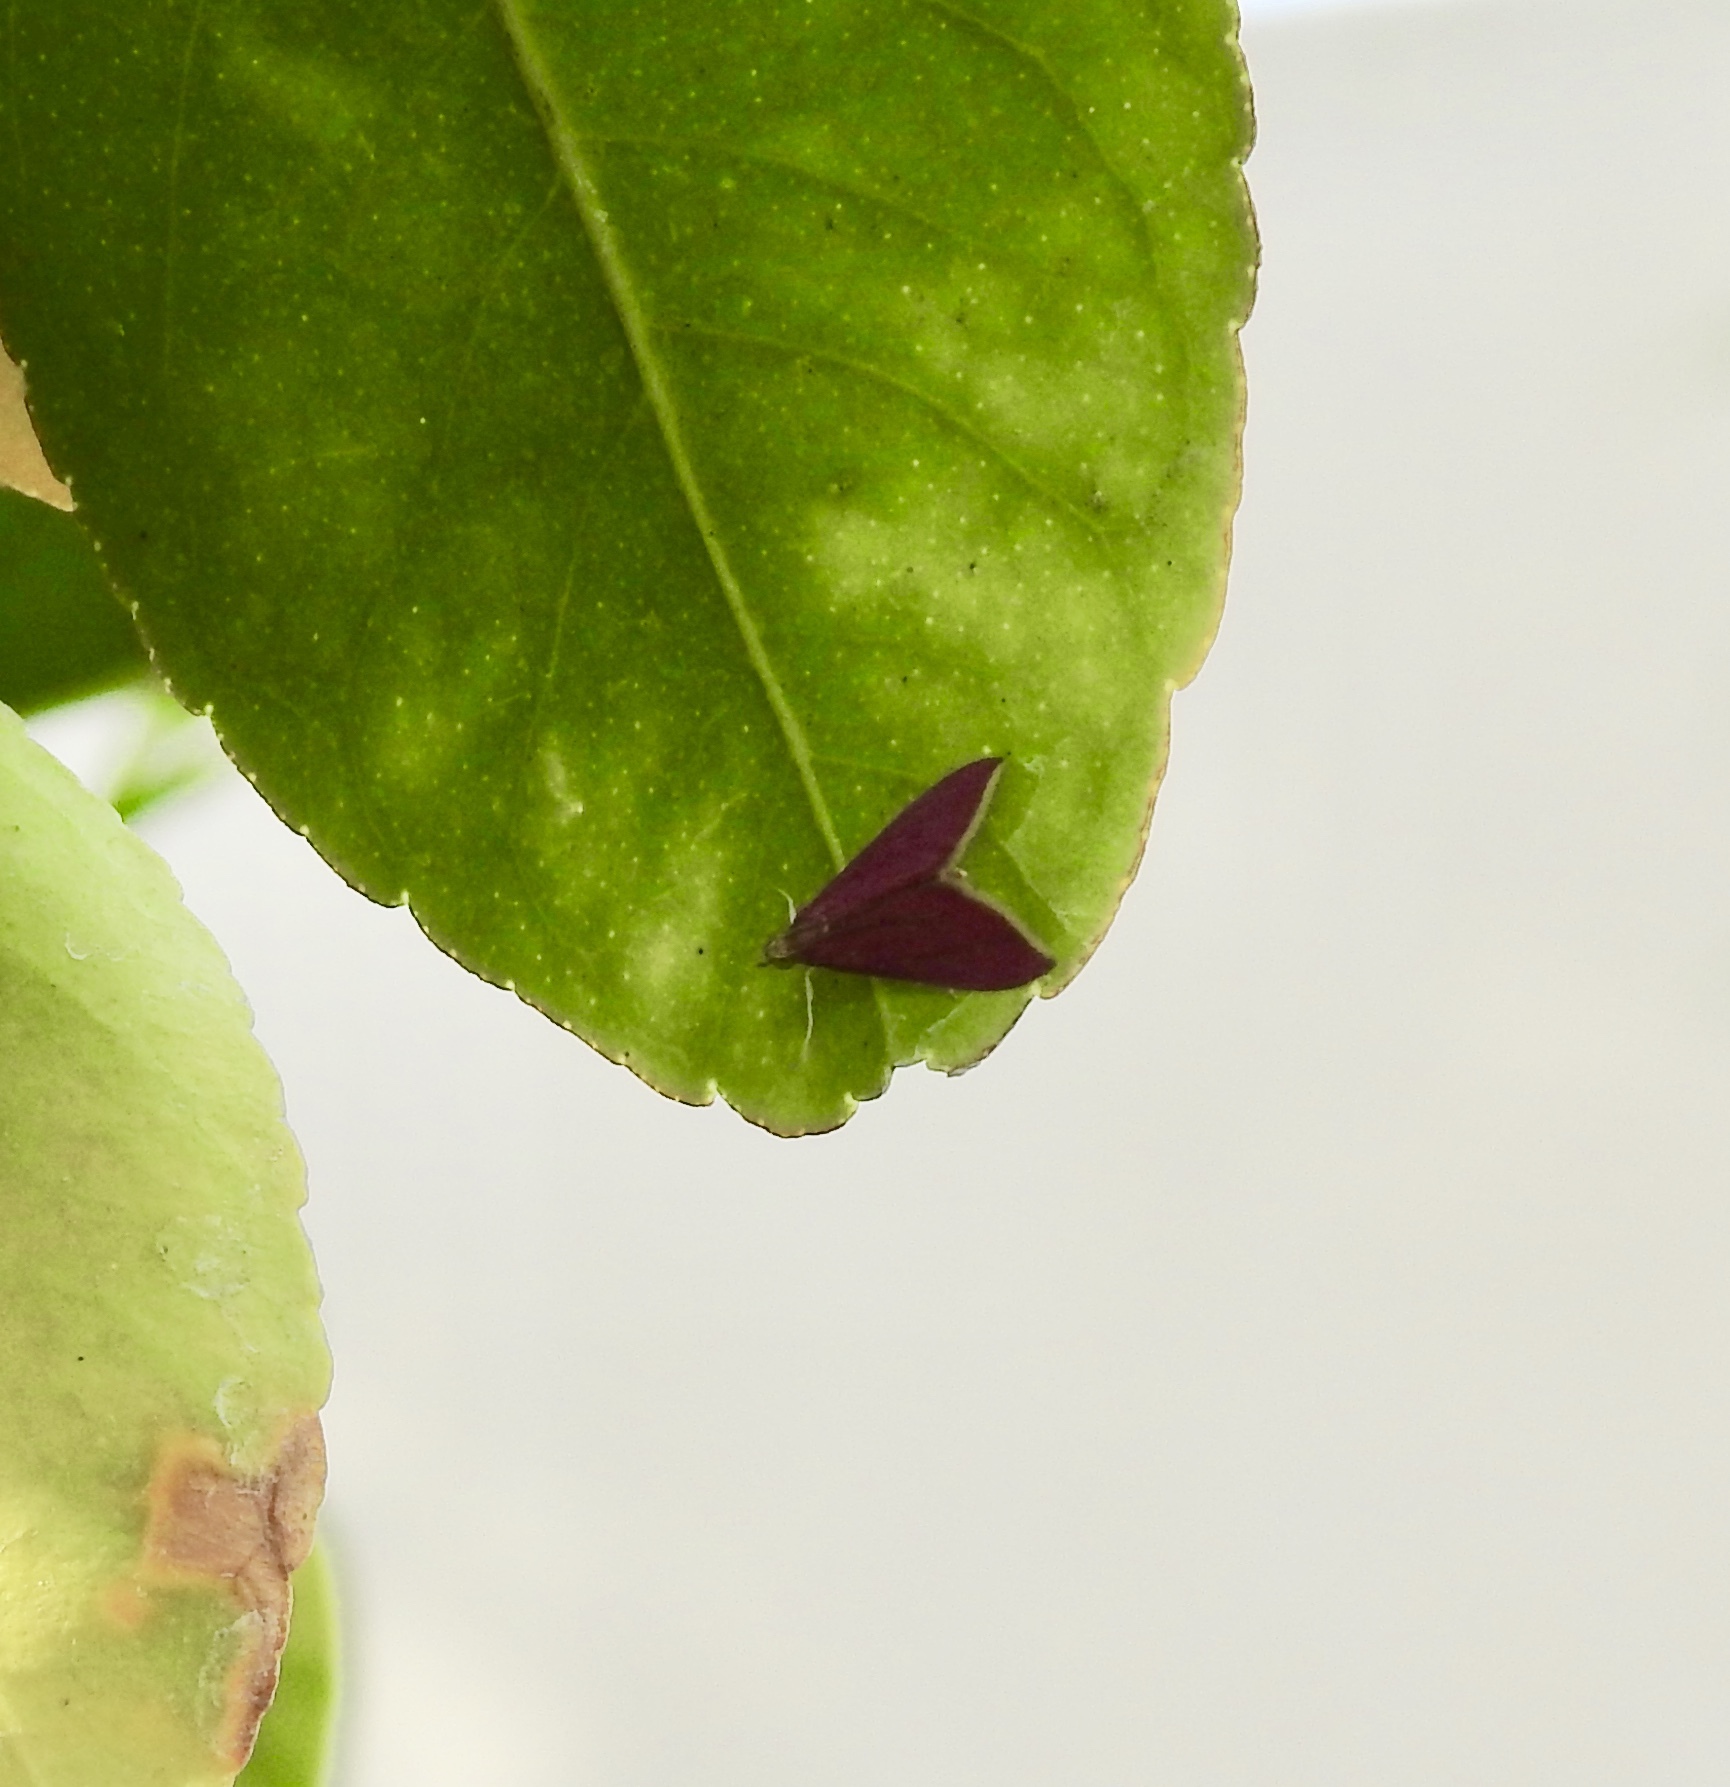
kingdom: Animalia
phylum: Arthropoda
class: Insecta
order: Lepidoptera
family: Crambidae
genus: Pyrausta
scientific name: Pyrausta inornatalis
